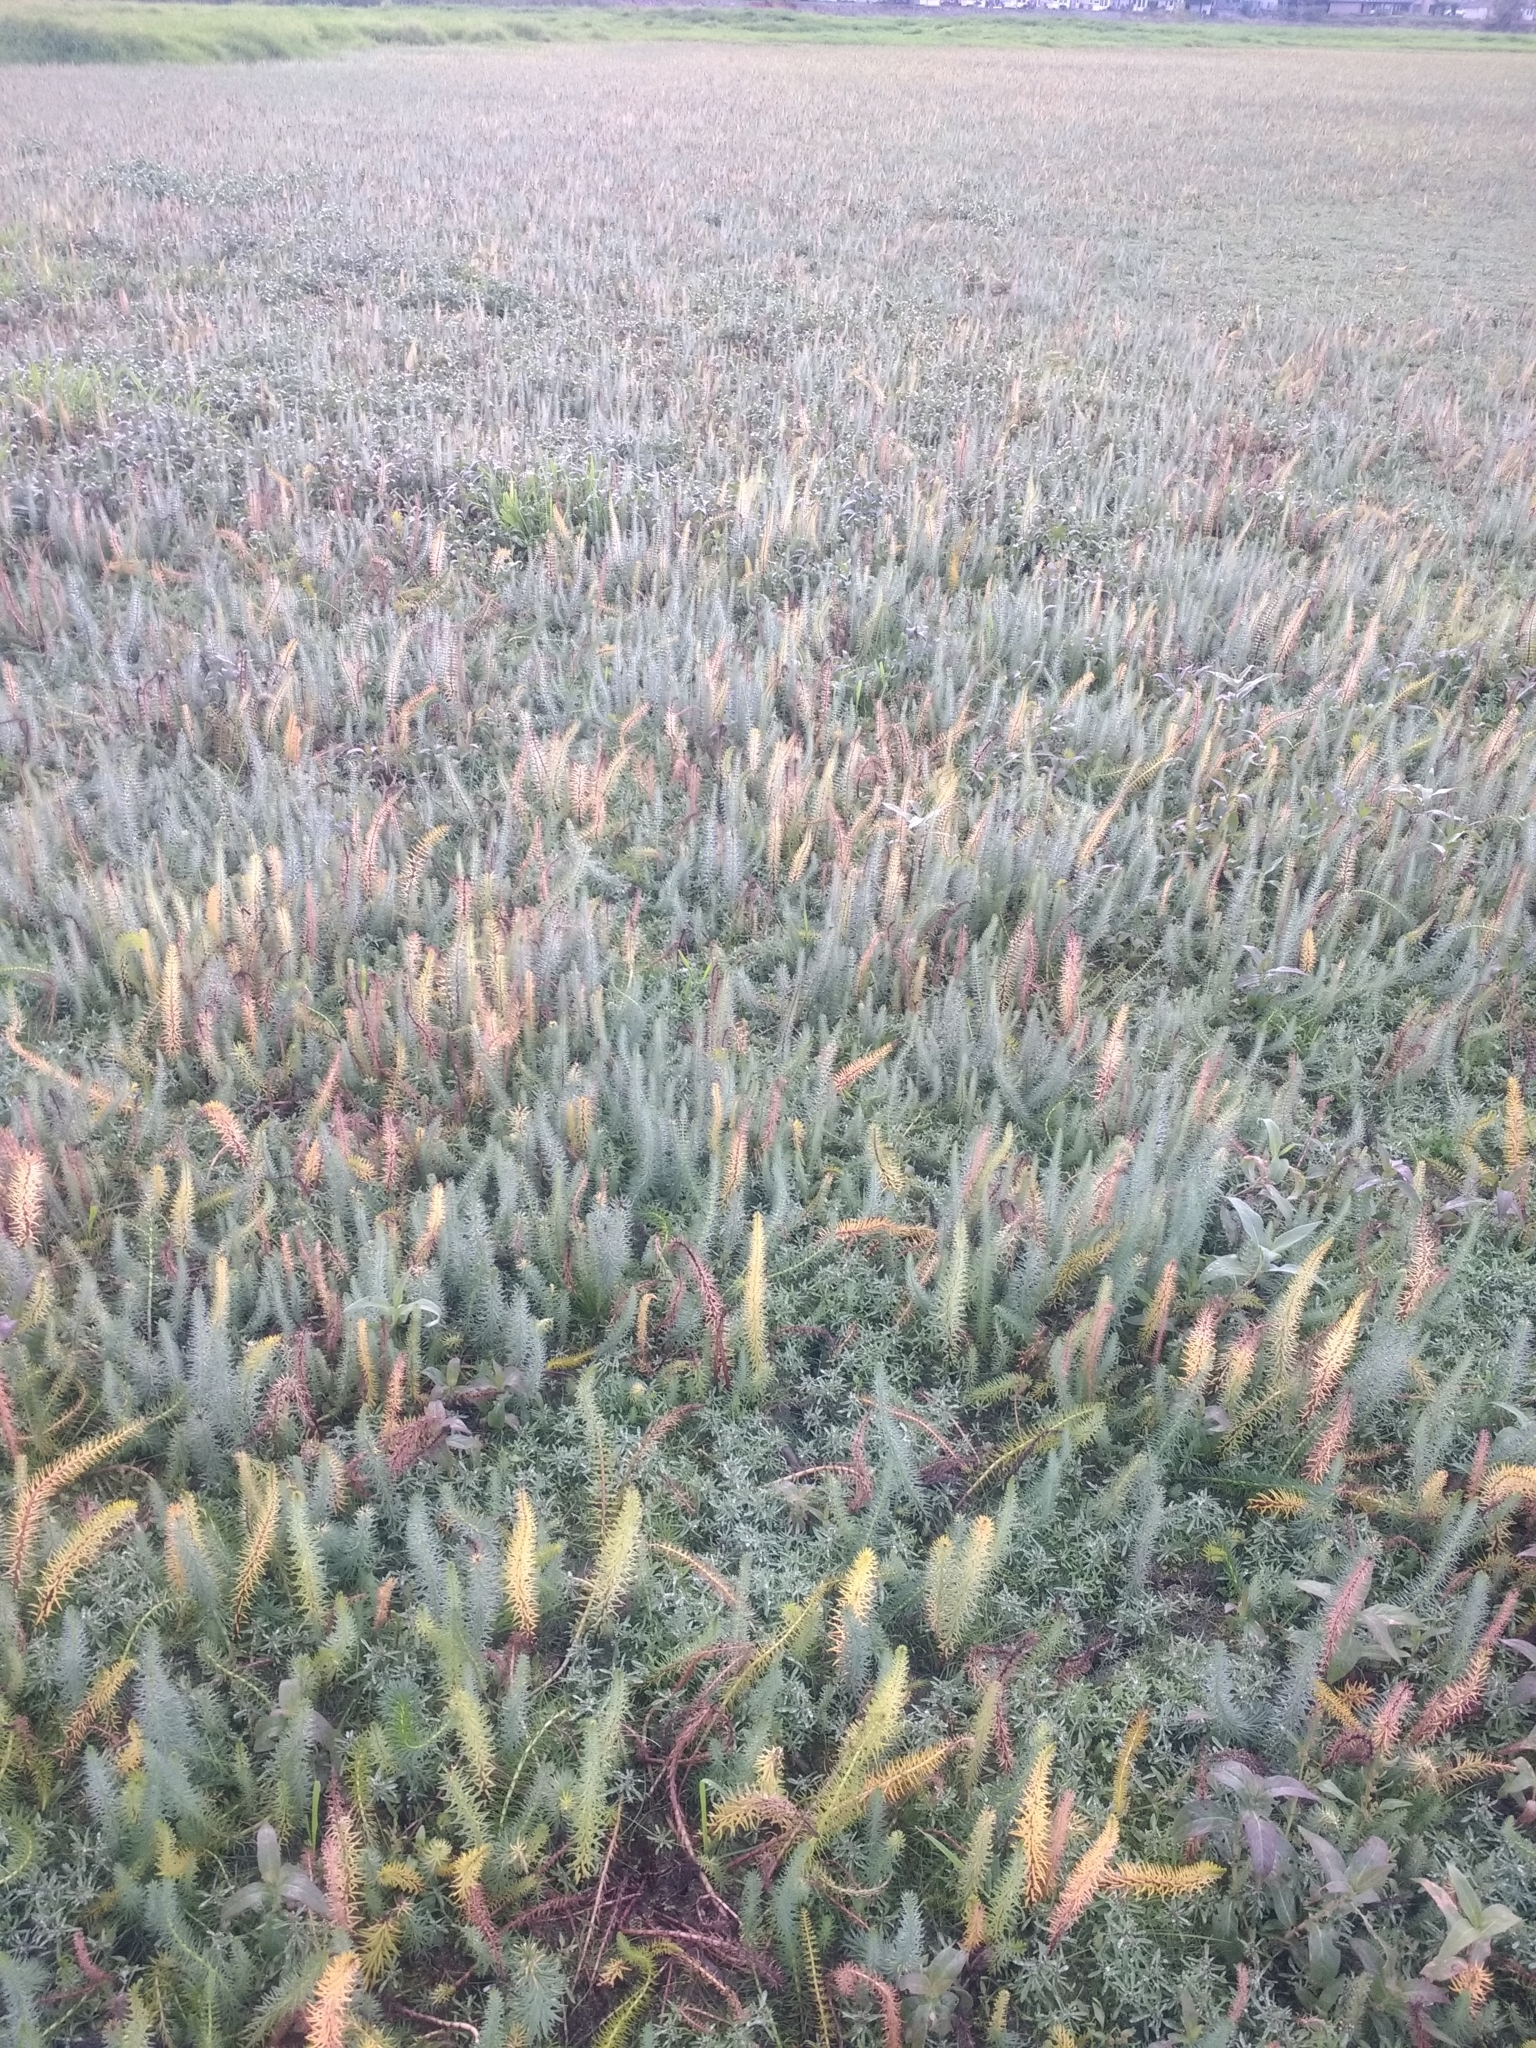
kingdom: Plantae
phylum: Tracheophyta
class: Magnoliopsida
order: Lamiales
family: Plantaginaceae
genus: Hippuris
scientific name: Hippuris vulgaris
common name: Mare's-tail
